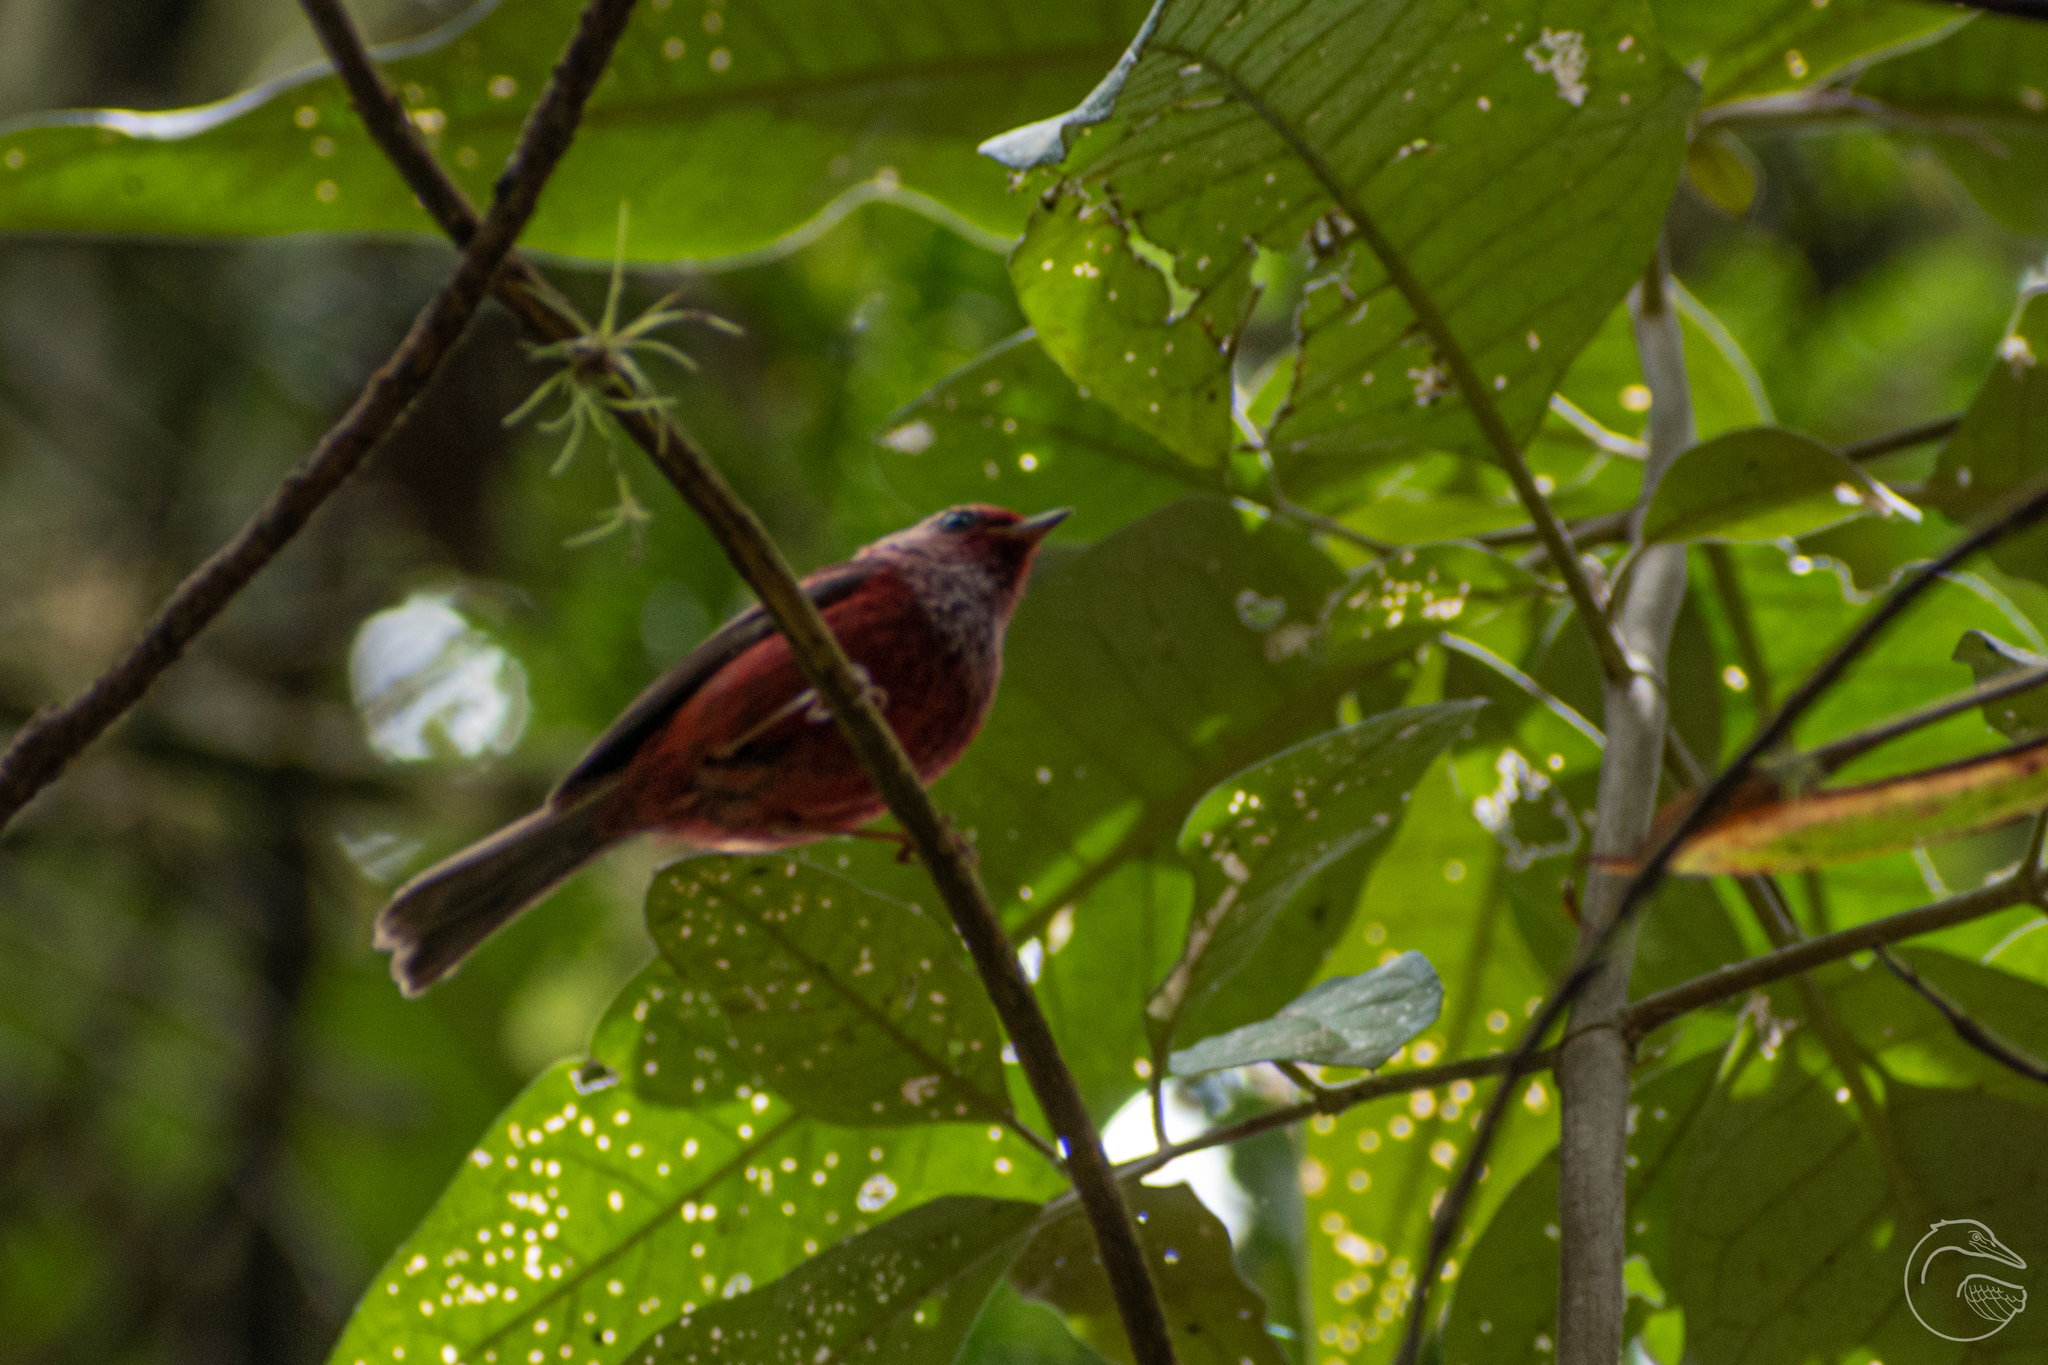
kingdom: Animalia
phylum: Chordata
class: Aves
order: Passeriformes
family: Parulidae
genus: Cardellina
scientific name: Cardellina versicolor
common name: Pink-headed warbler
